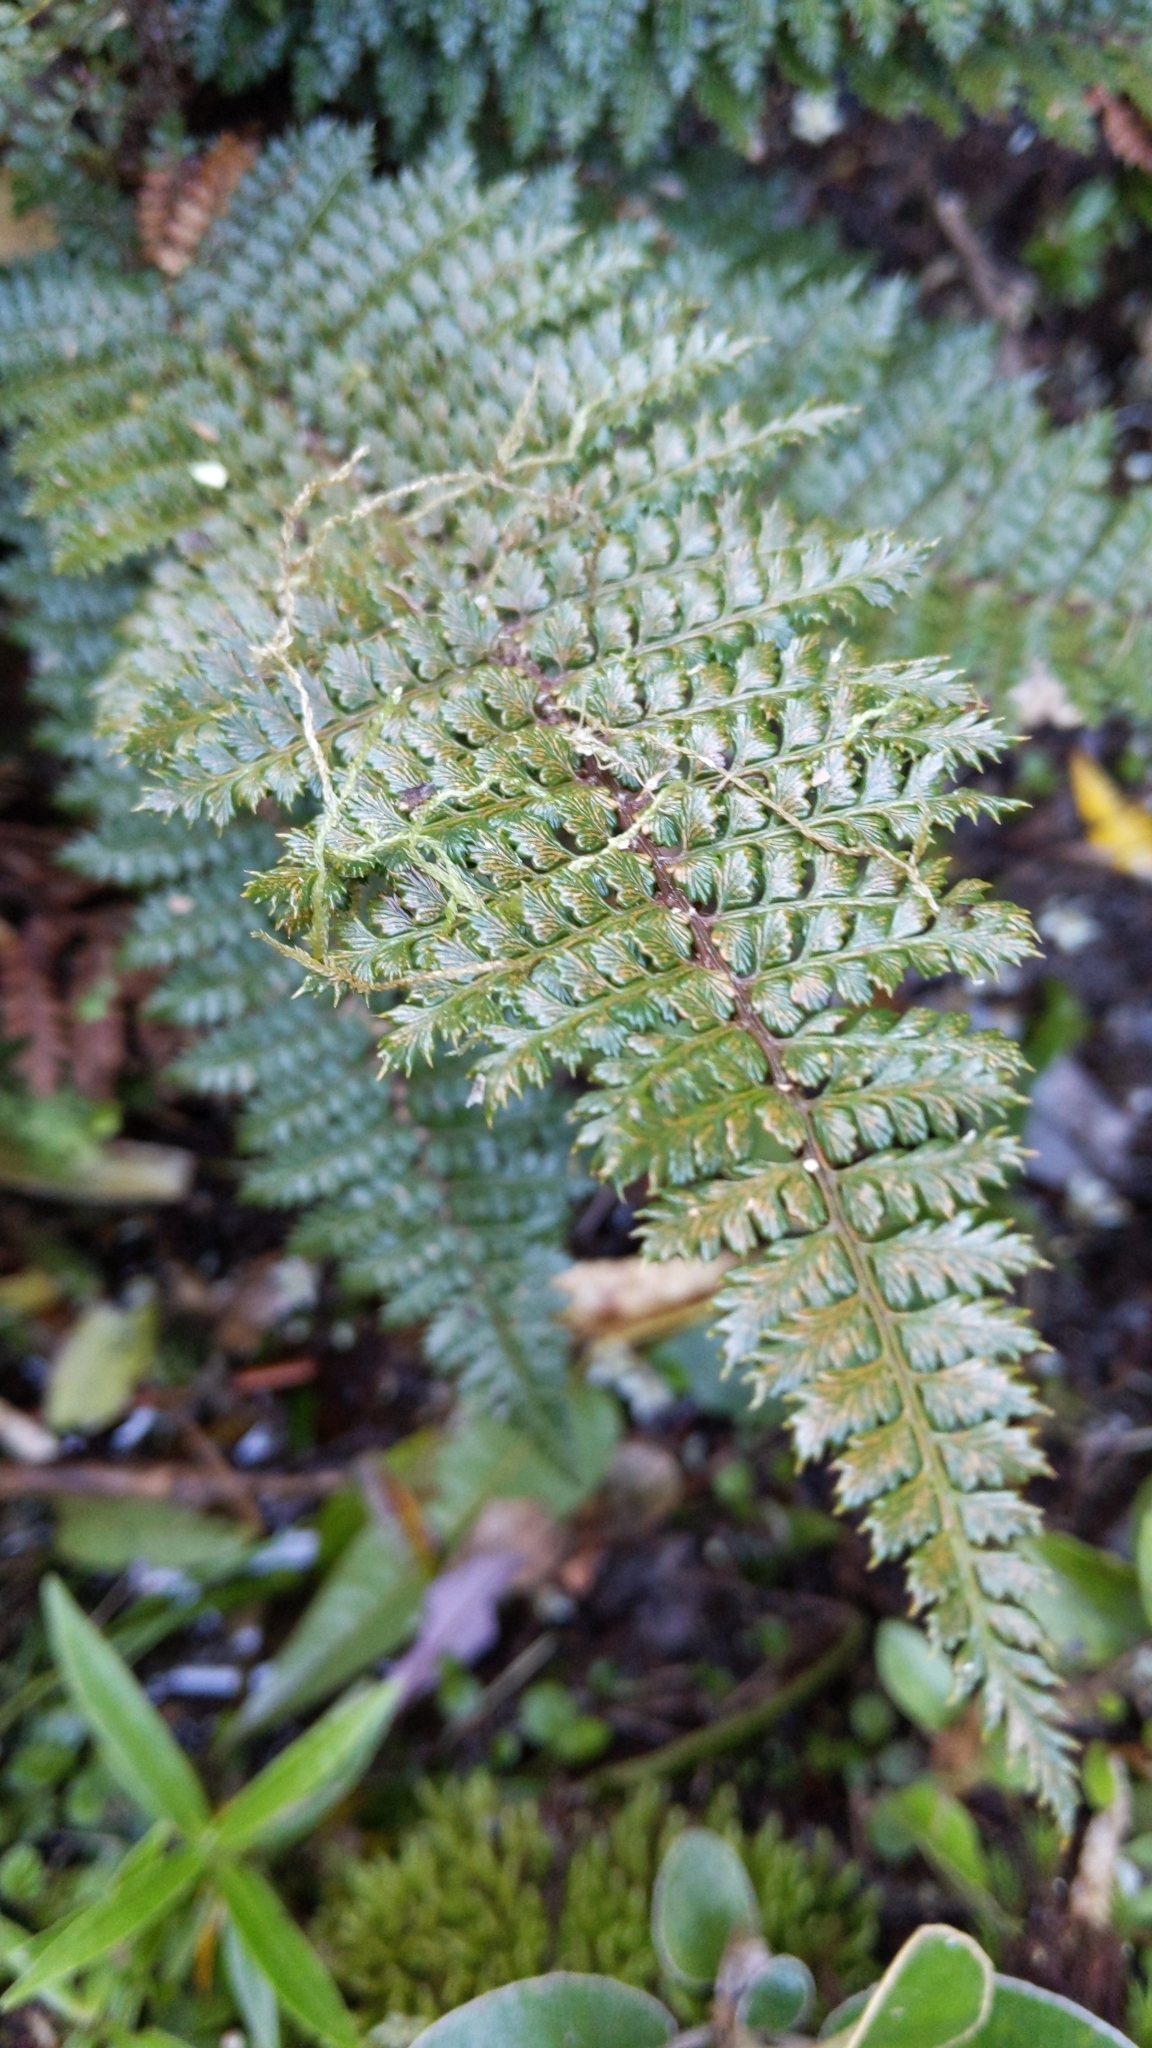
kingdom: Plantae
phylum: Tracheophyta
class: Polypodiopsida
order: Polypodiales
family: Dryopteridaceae
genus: Polystichum
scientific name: Polystichum vestitum
